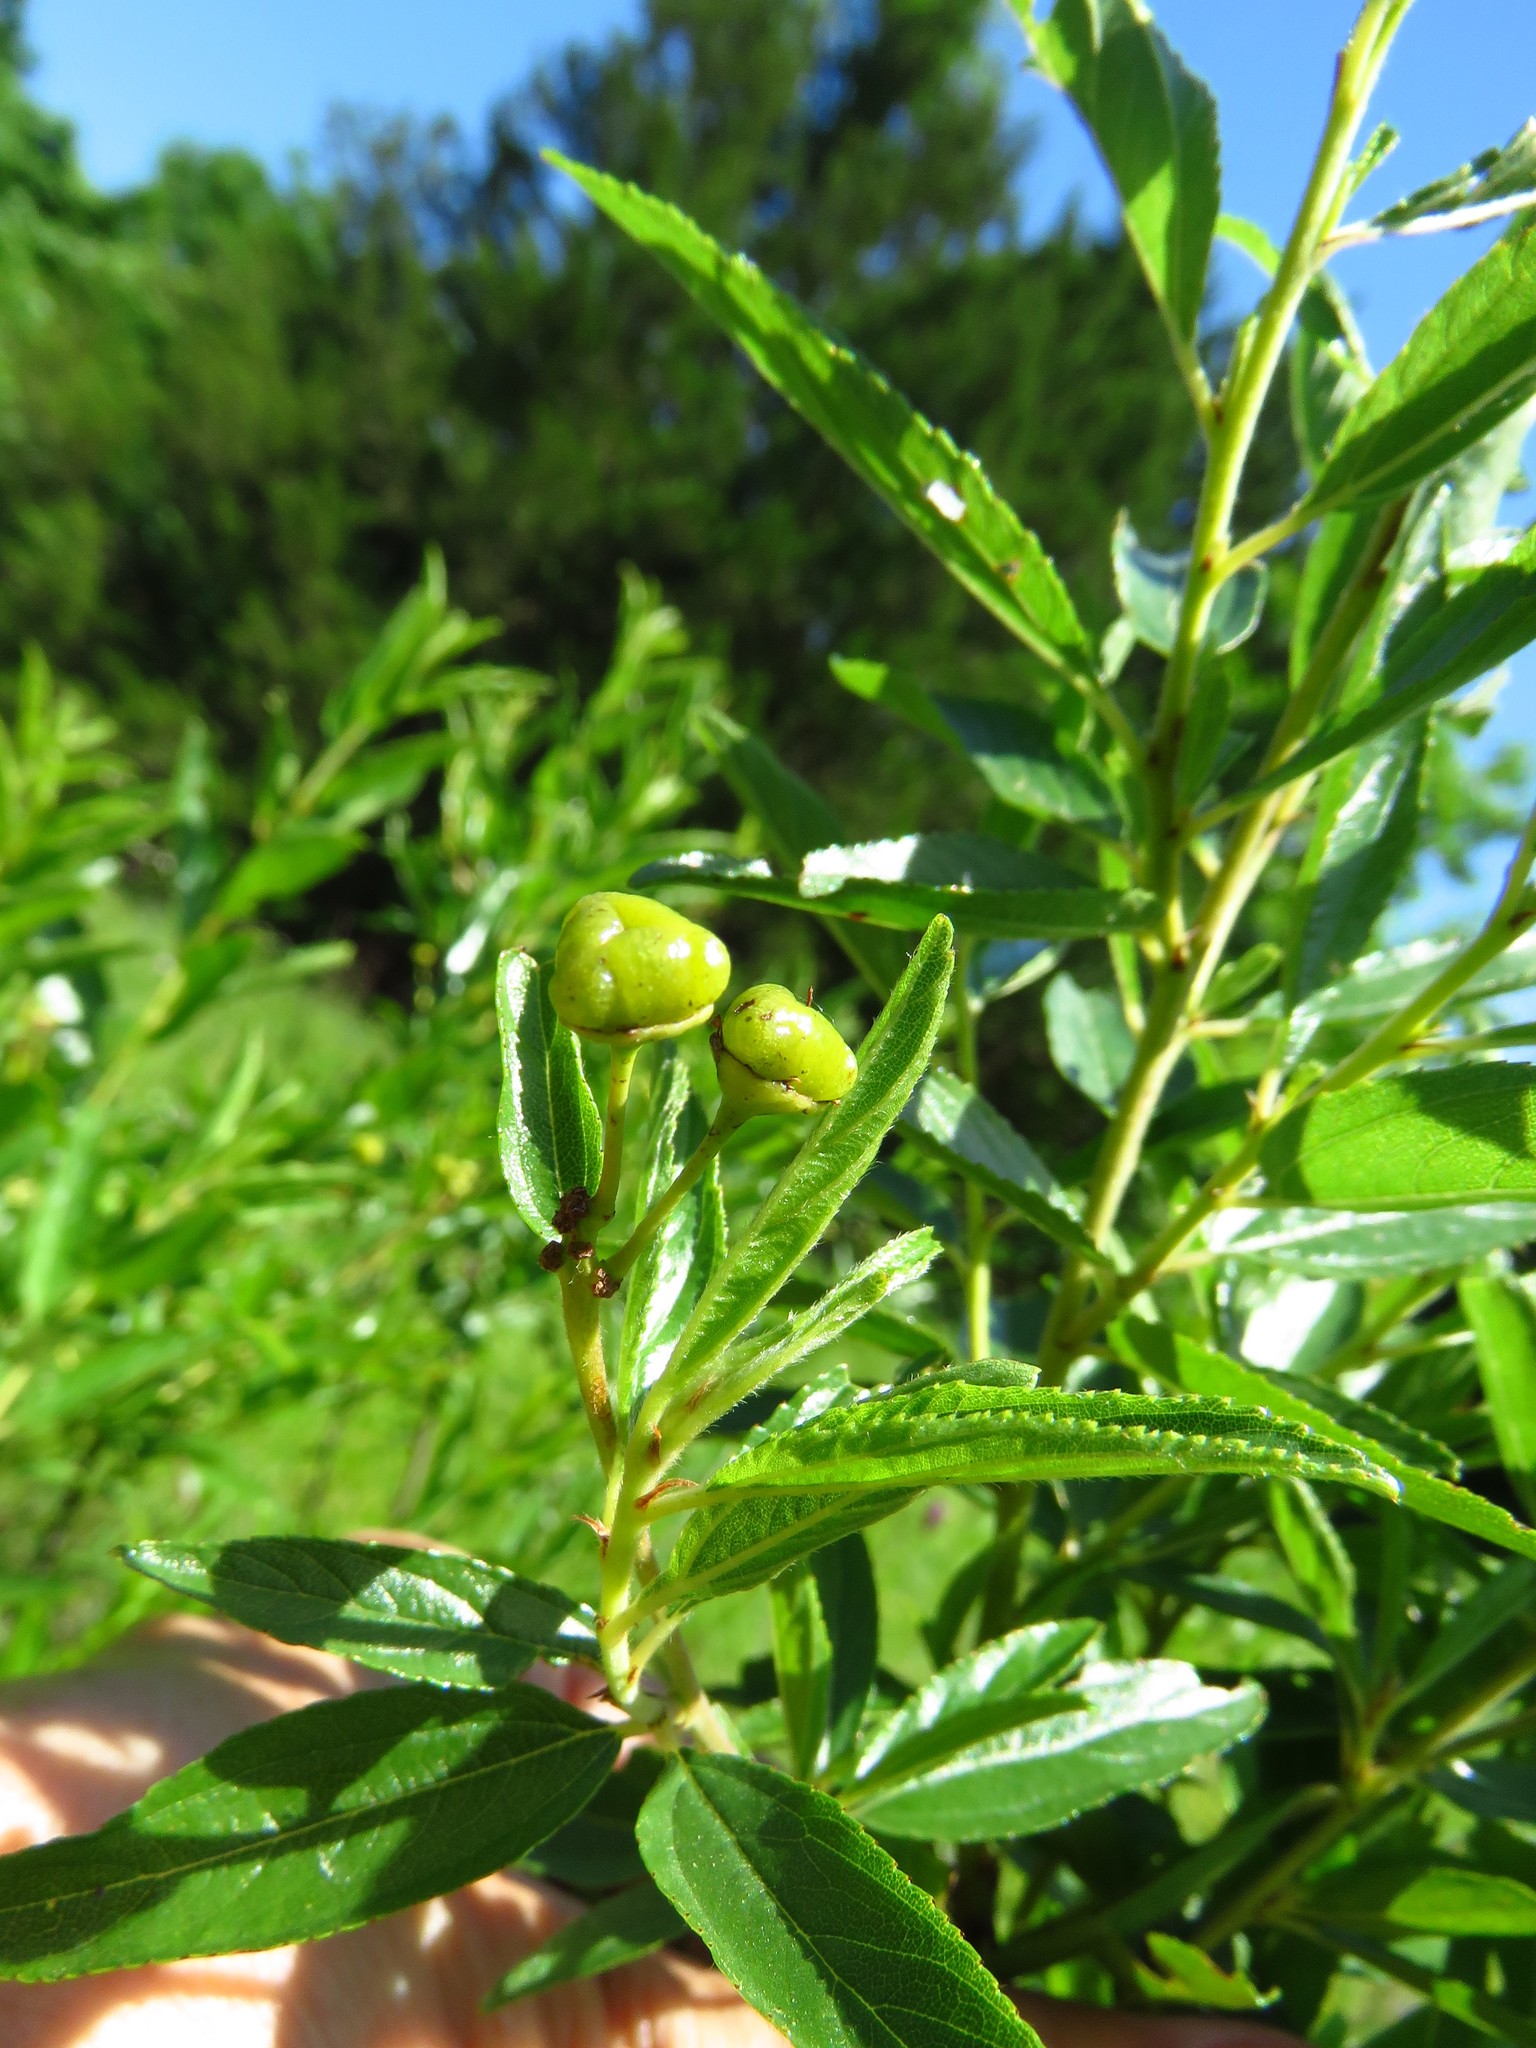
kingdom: Plantae
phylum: Tracheophyta
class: Magnoliopsida
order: Rosales
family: Rhamnaceae
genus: Ceanothus
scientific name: Ceanothus herbaceus
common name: Inland ceanothus
